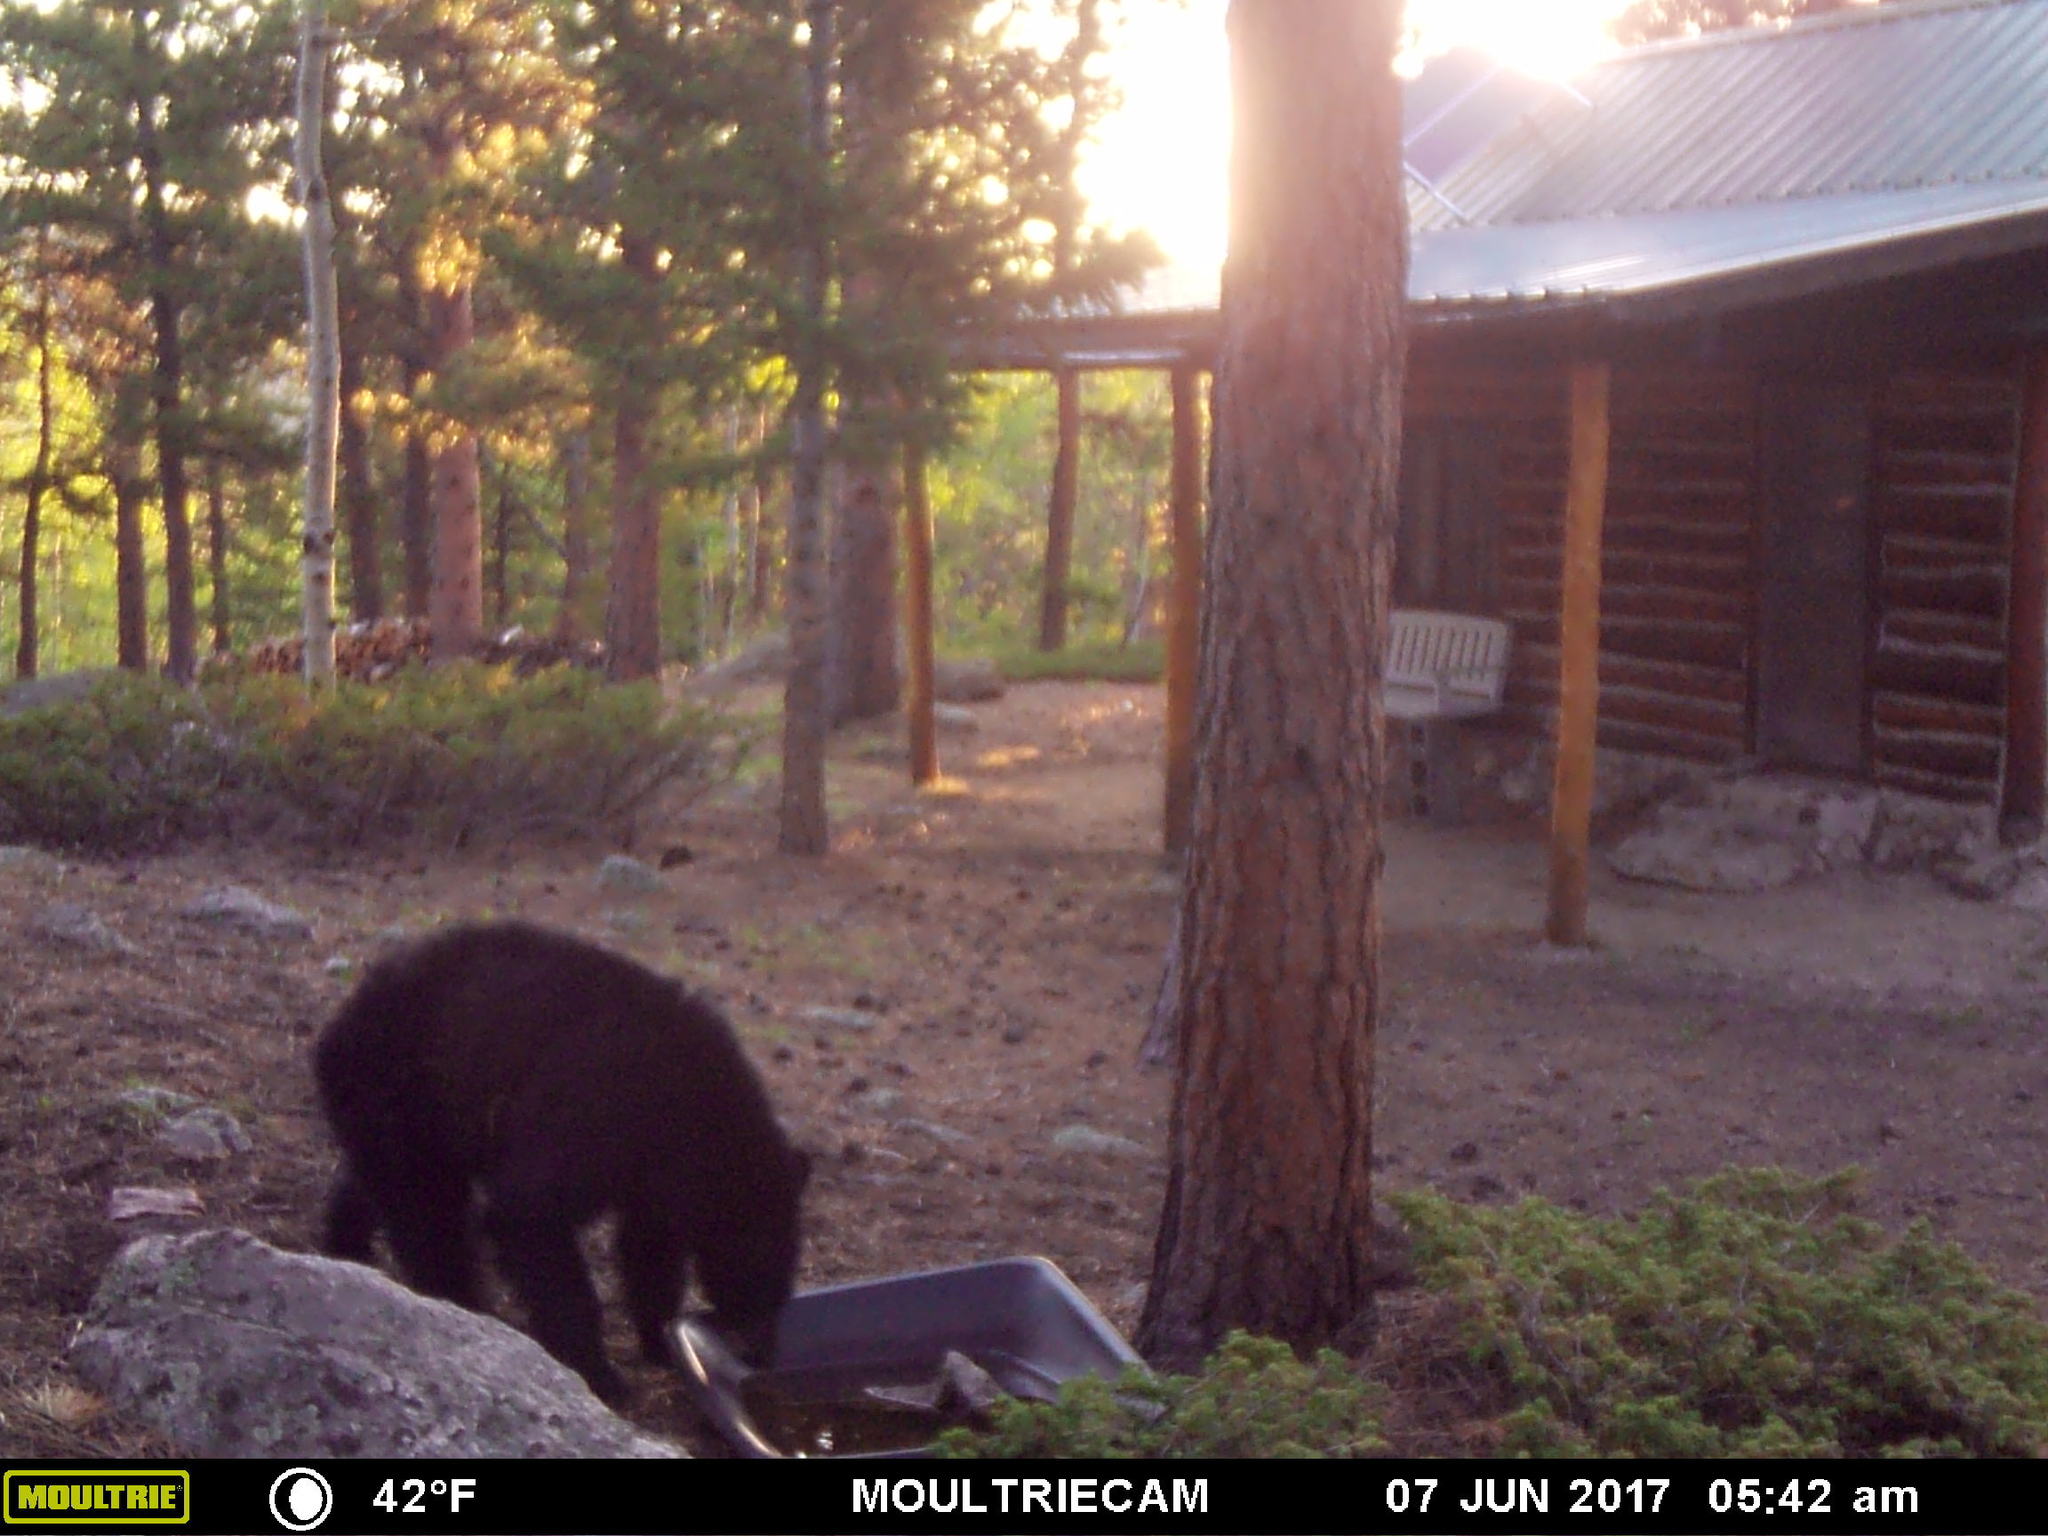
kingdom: Animalia
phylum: Chordata
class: Mammalia
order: Carnivora
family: Ursidae
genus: Ursus
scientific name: Ursus americanus
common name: American black bear
